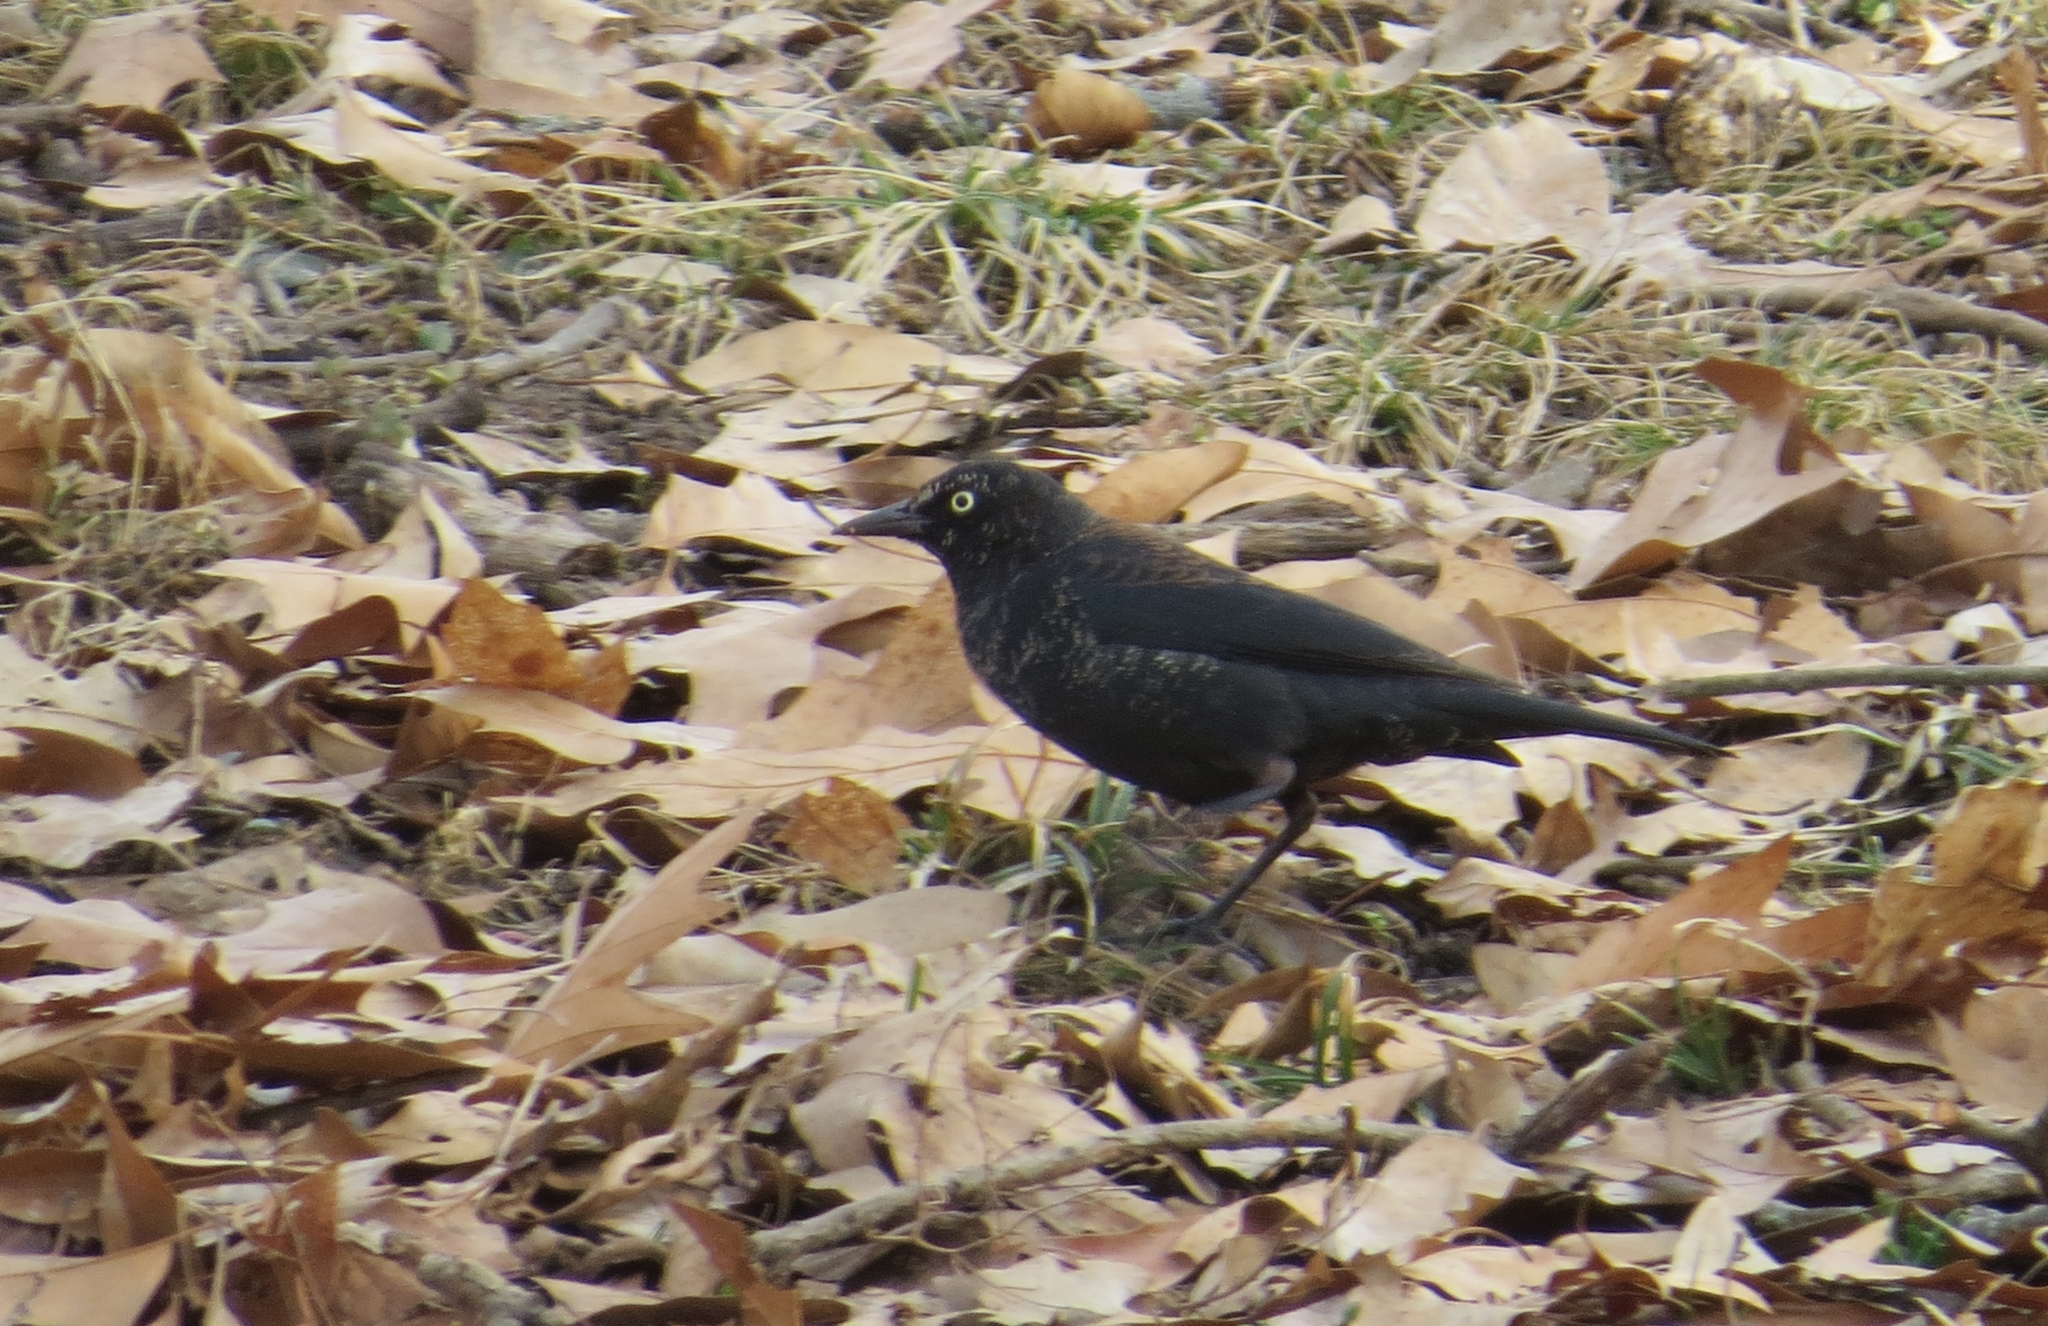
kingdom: Animalia
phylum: Chordata
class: Aves
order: Passeriformes
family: Icteridae
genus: Euphagus
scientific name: Euphagus carolinus
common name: Rusty blackbird
